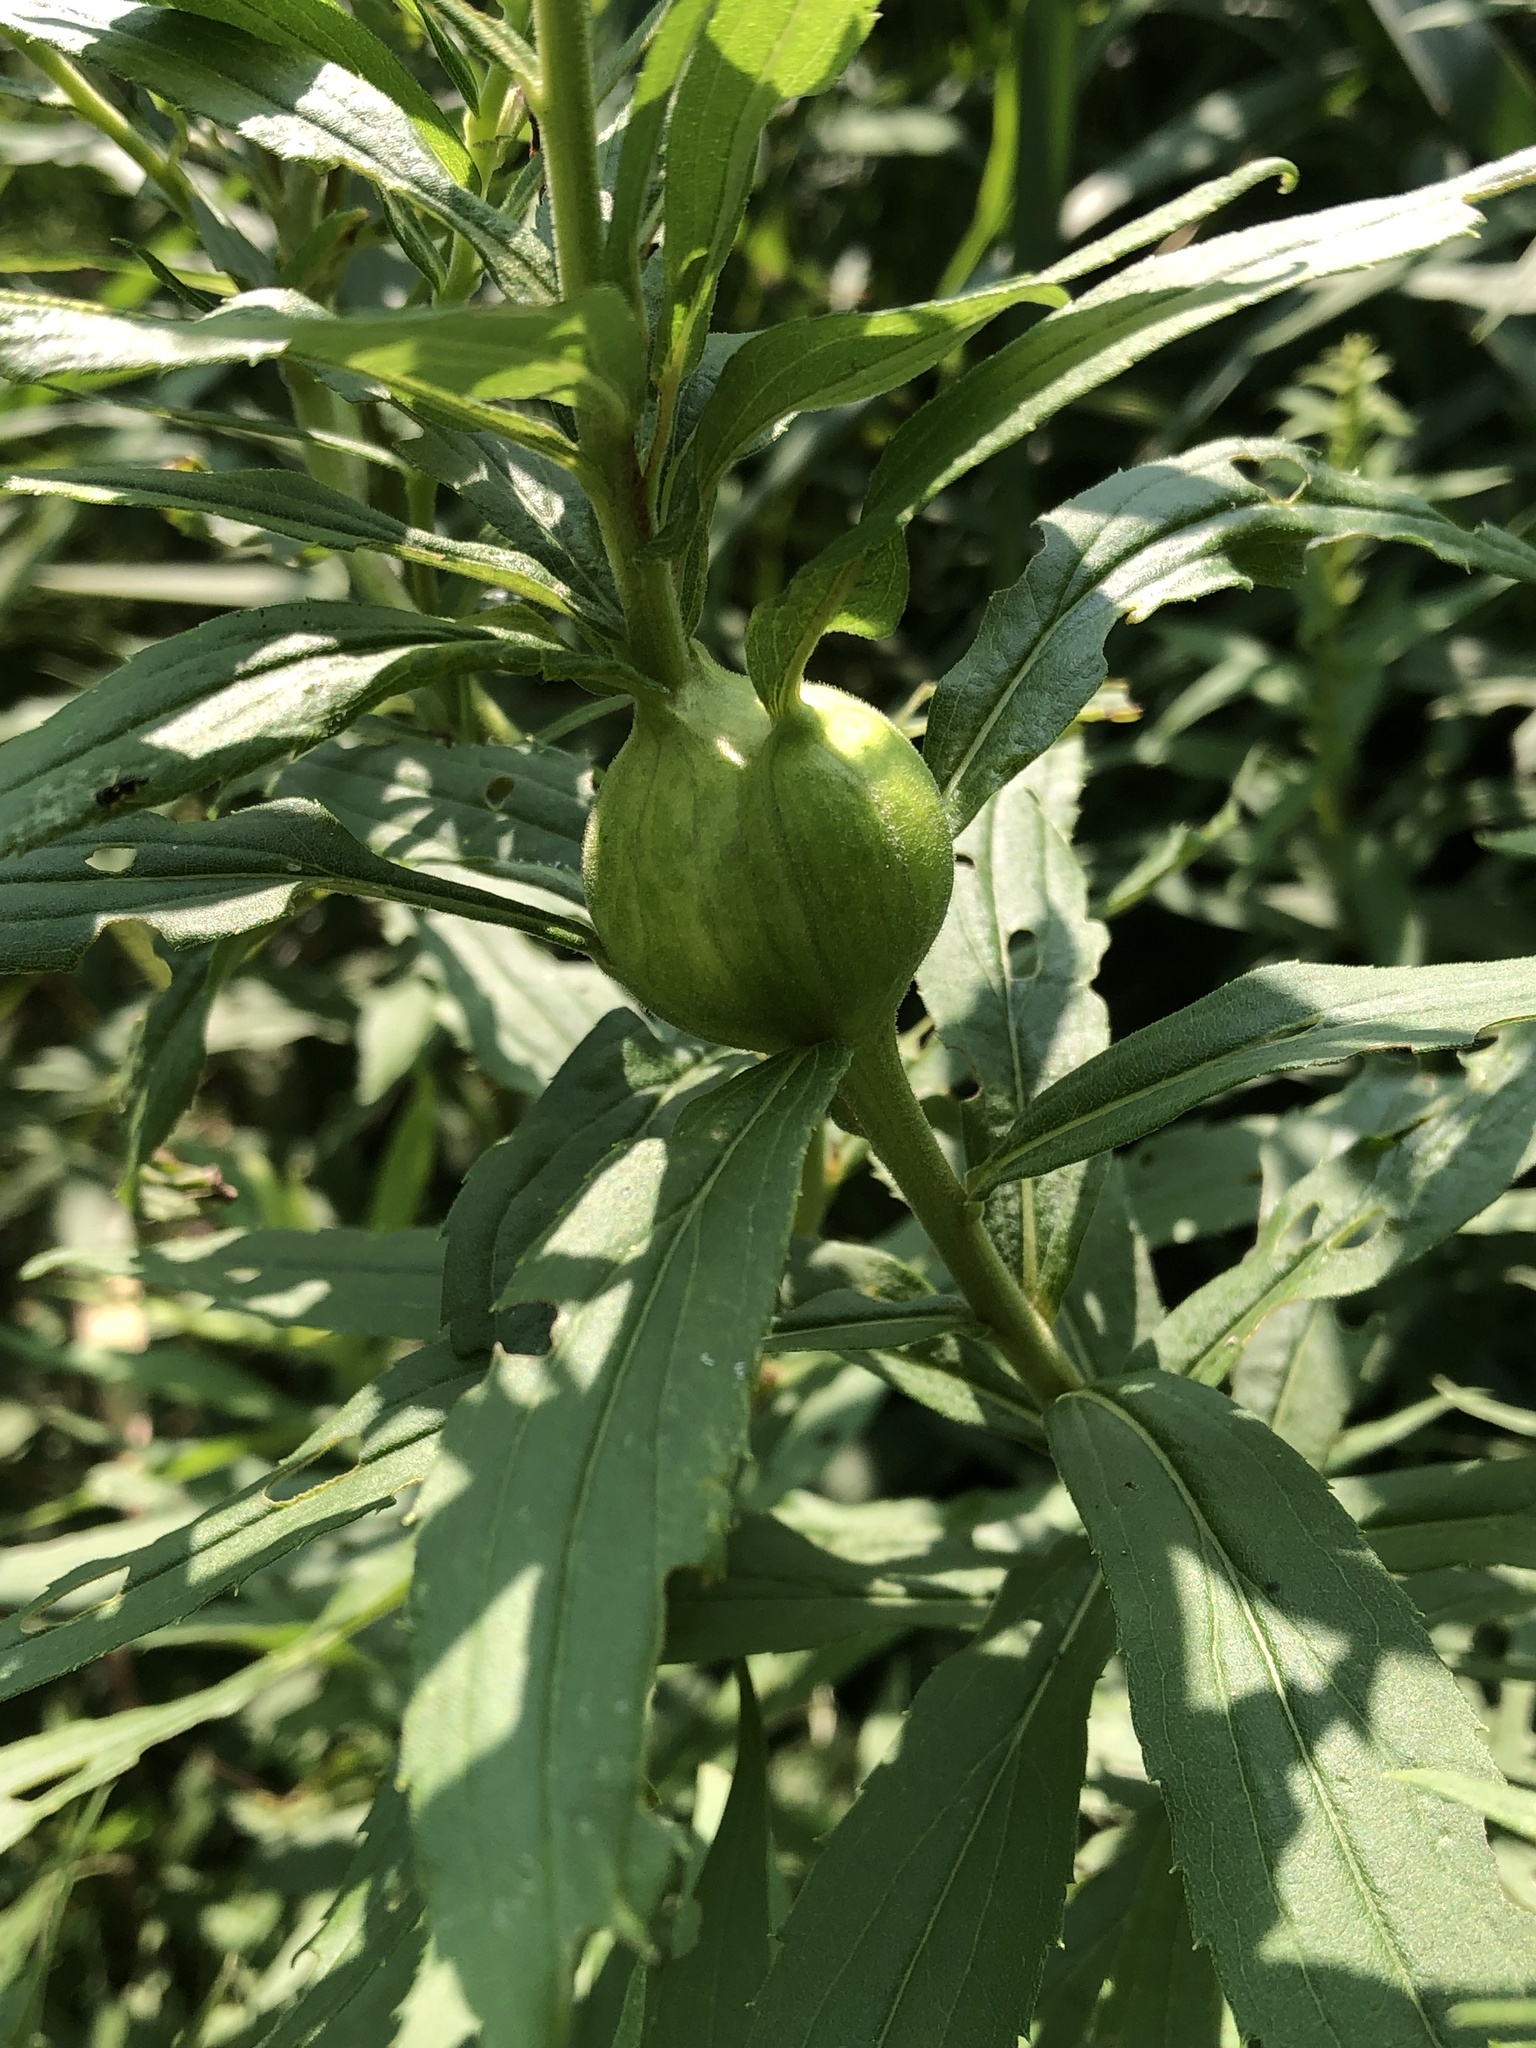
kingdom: Animalia
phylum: Arthropoda
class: Insecta
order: Diptera
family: Tephritidae
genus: Eurosta
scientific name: Eurosta solidaginis
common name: Goldenrod gall fly
